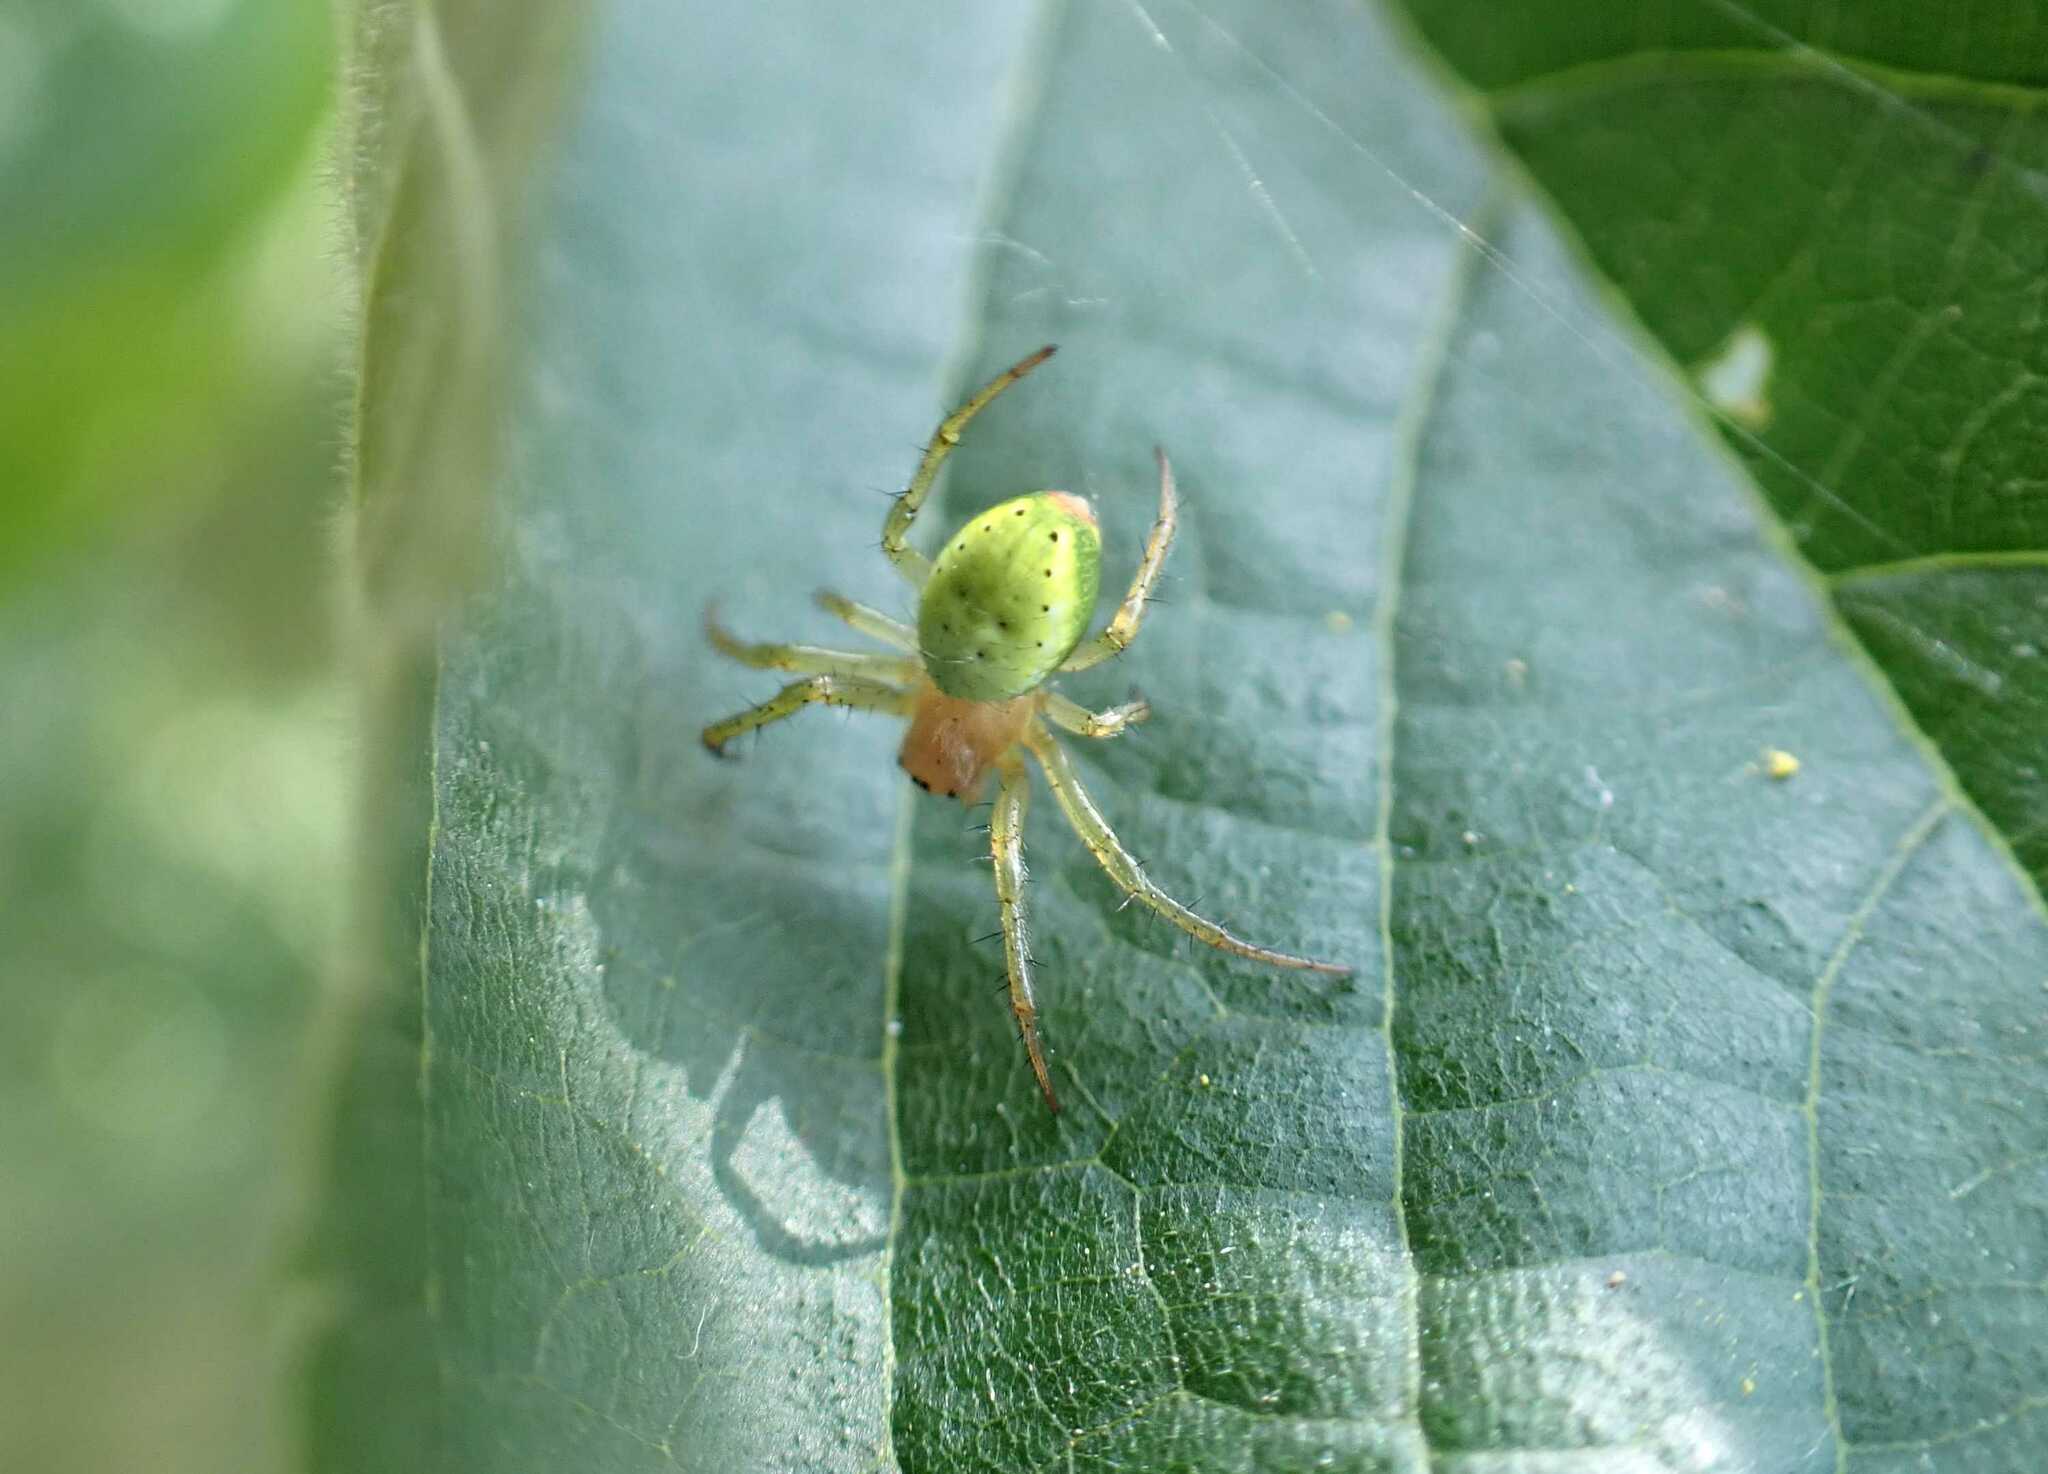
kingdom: Animalia
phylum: Arthropoda
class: Arachnida
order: Araneae
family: Araneidae
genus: Araniella
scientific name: Araniella
